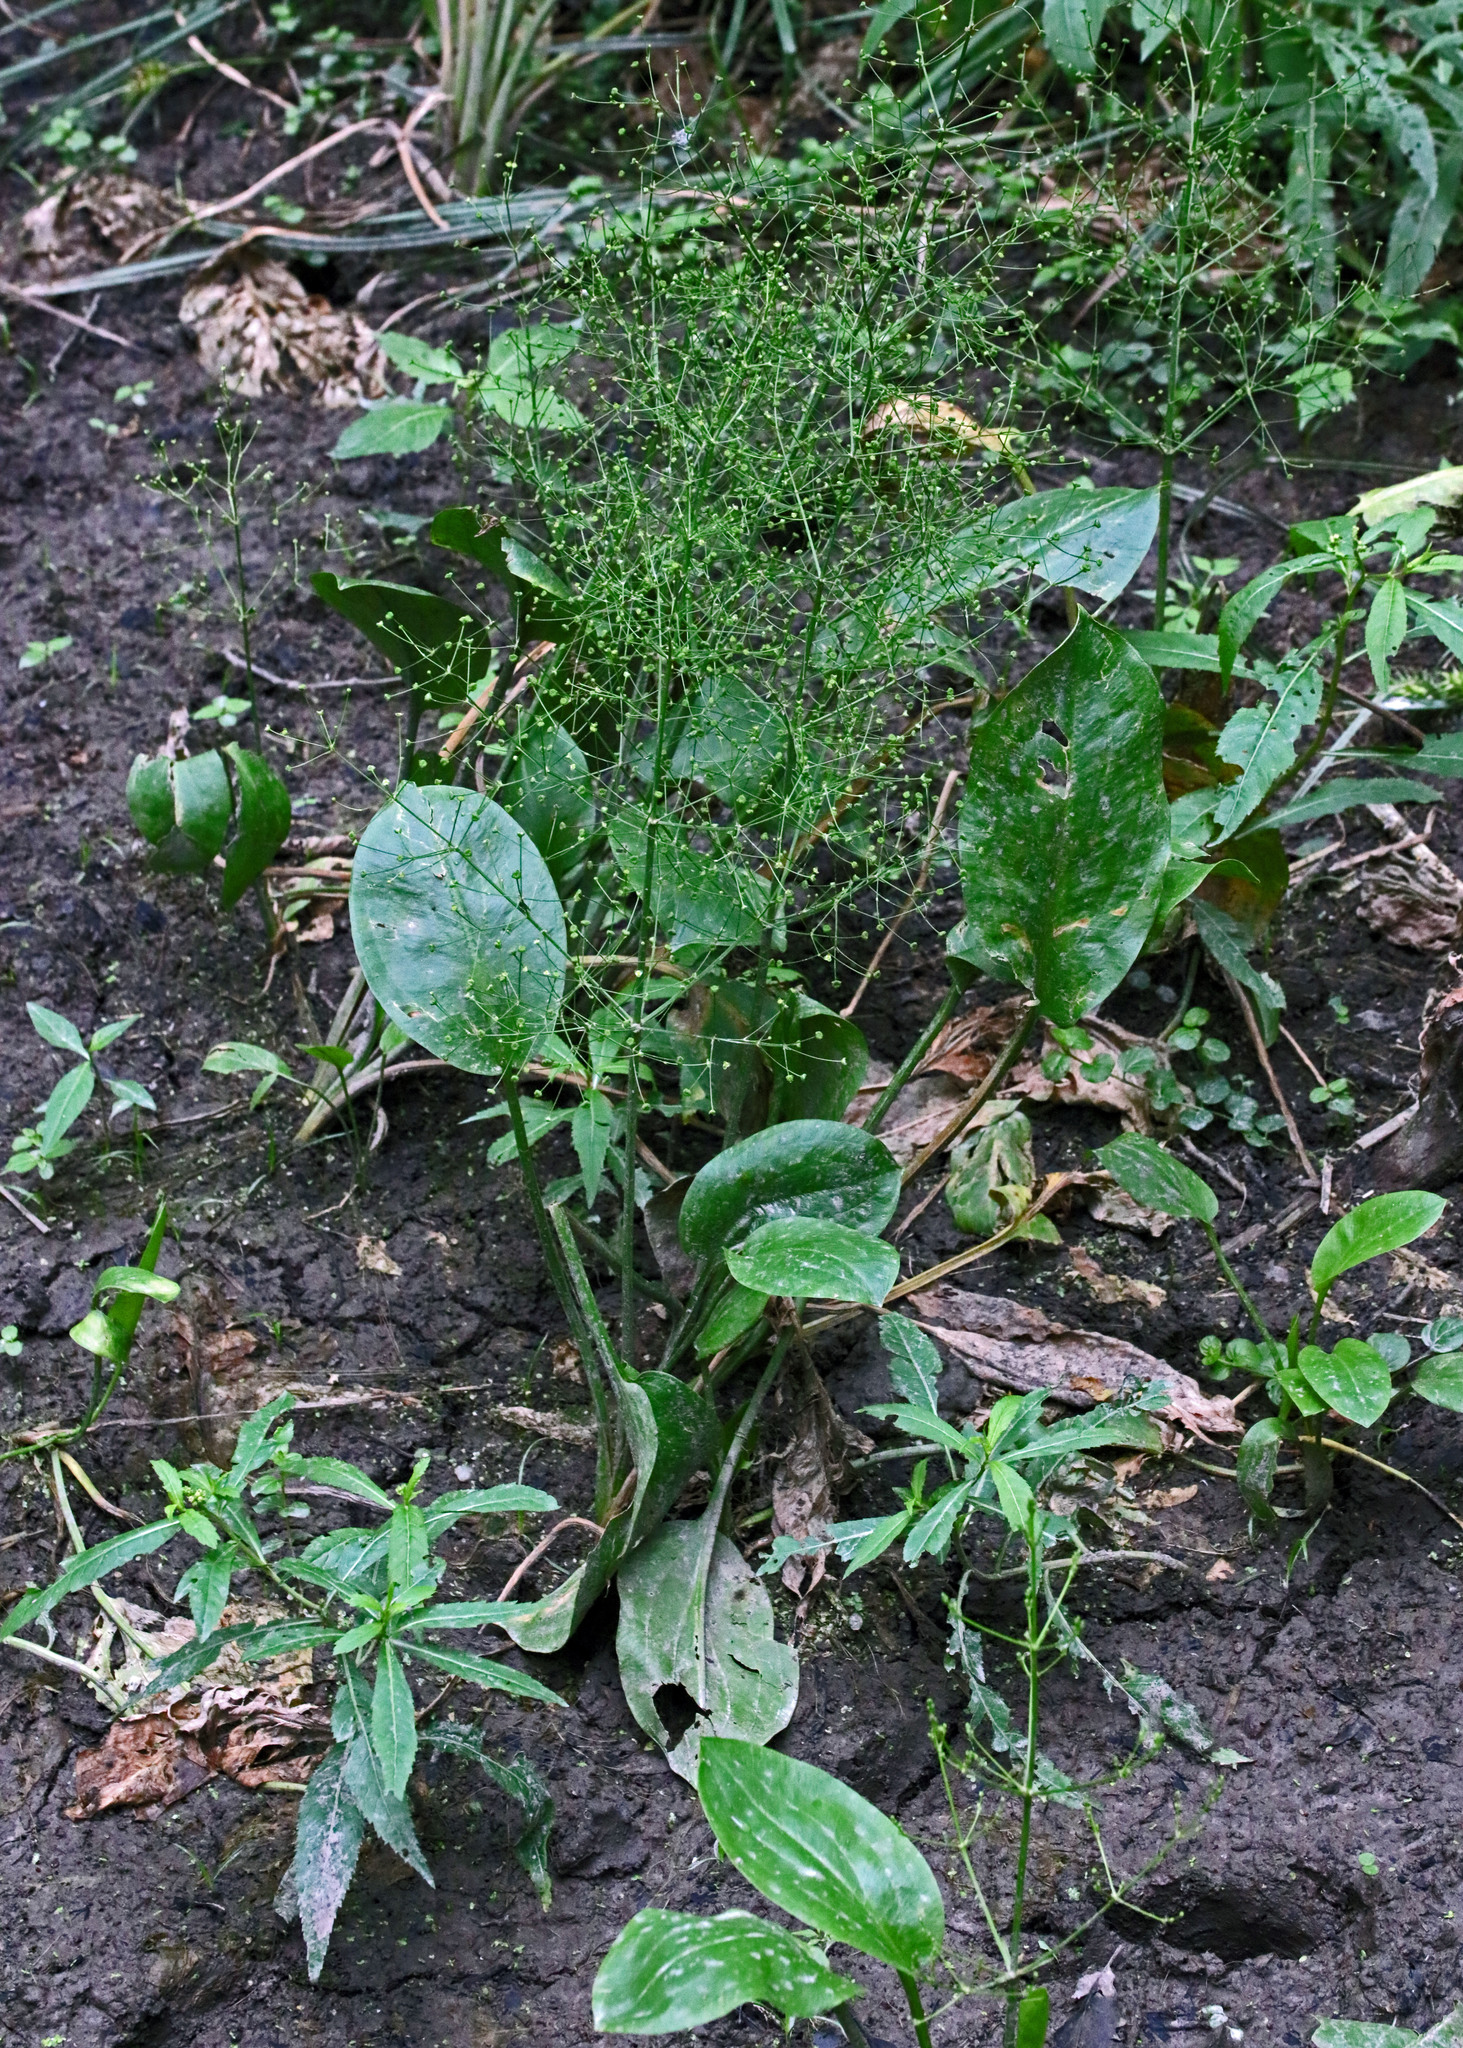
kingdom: Plantae
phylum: Tracheophyta
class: Liliopsida
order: Alismatales
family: Alismataceae
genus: Alisma
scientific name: Alisma subcordatum
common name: Southern water-plantain
